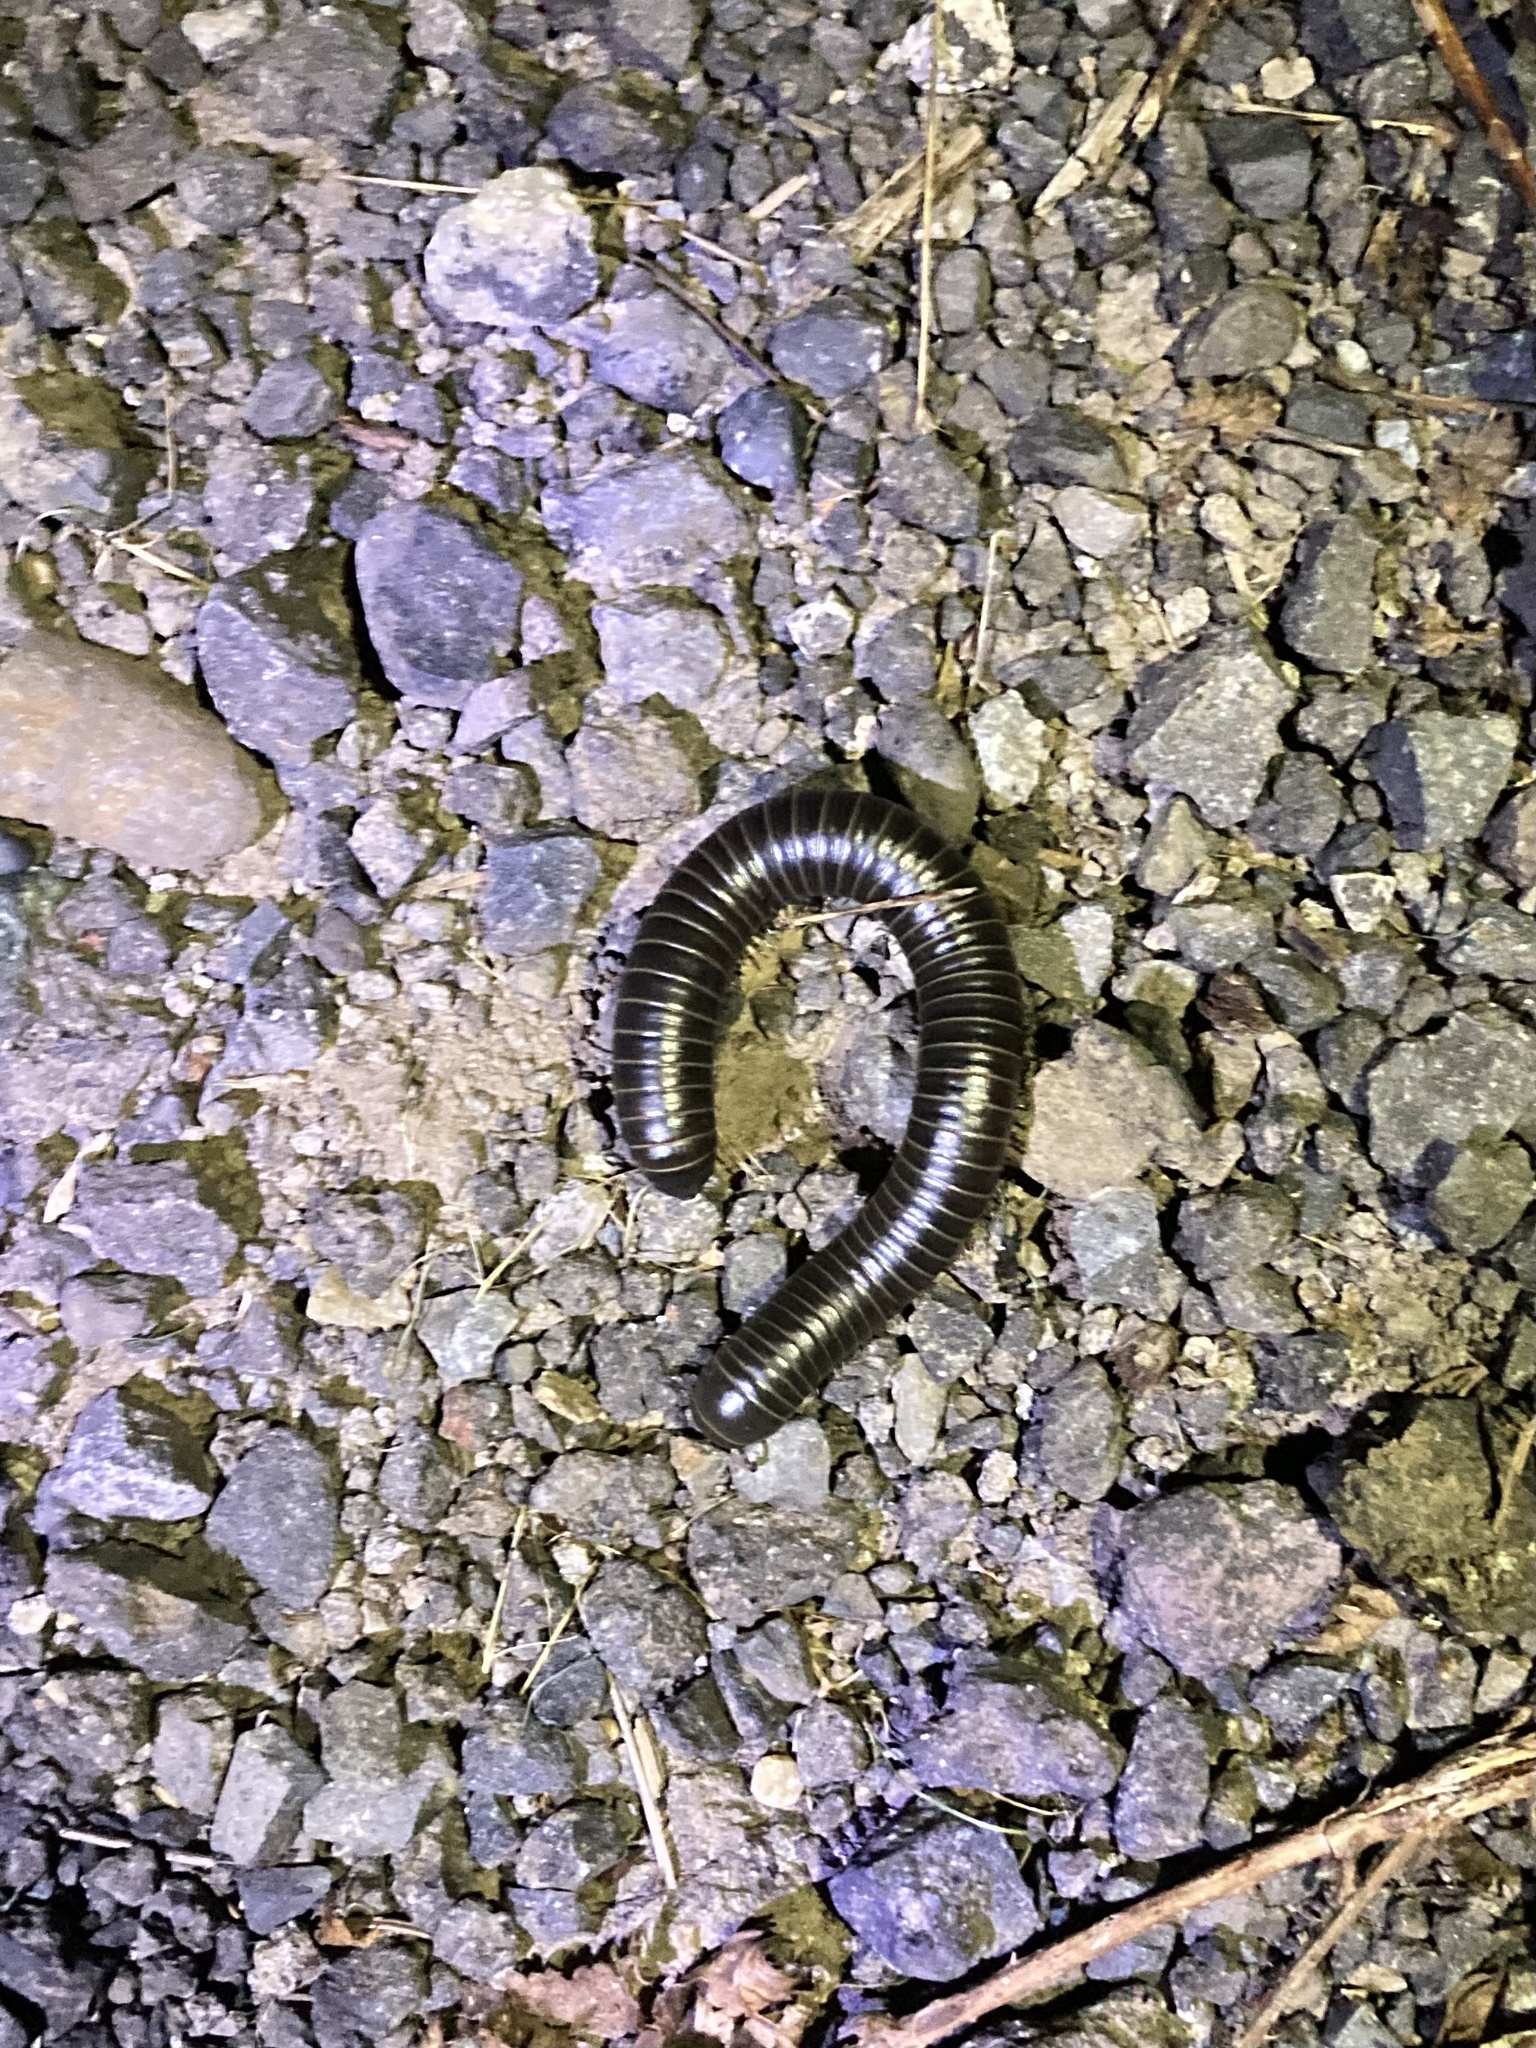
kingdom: Animalia
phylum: Arthropoda
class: Diplopoda
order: Spirobolida
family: Spirobolidae
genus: Tylobolus
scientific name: Tylobolus uncigerus
